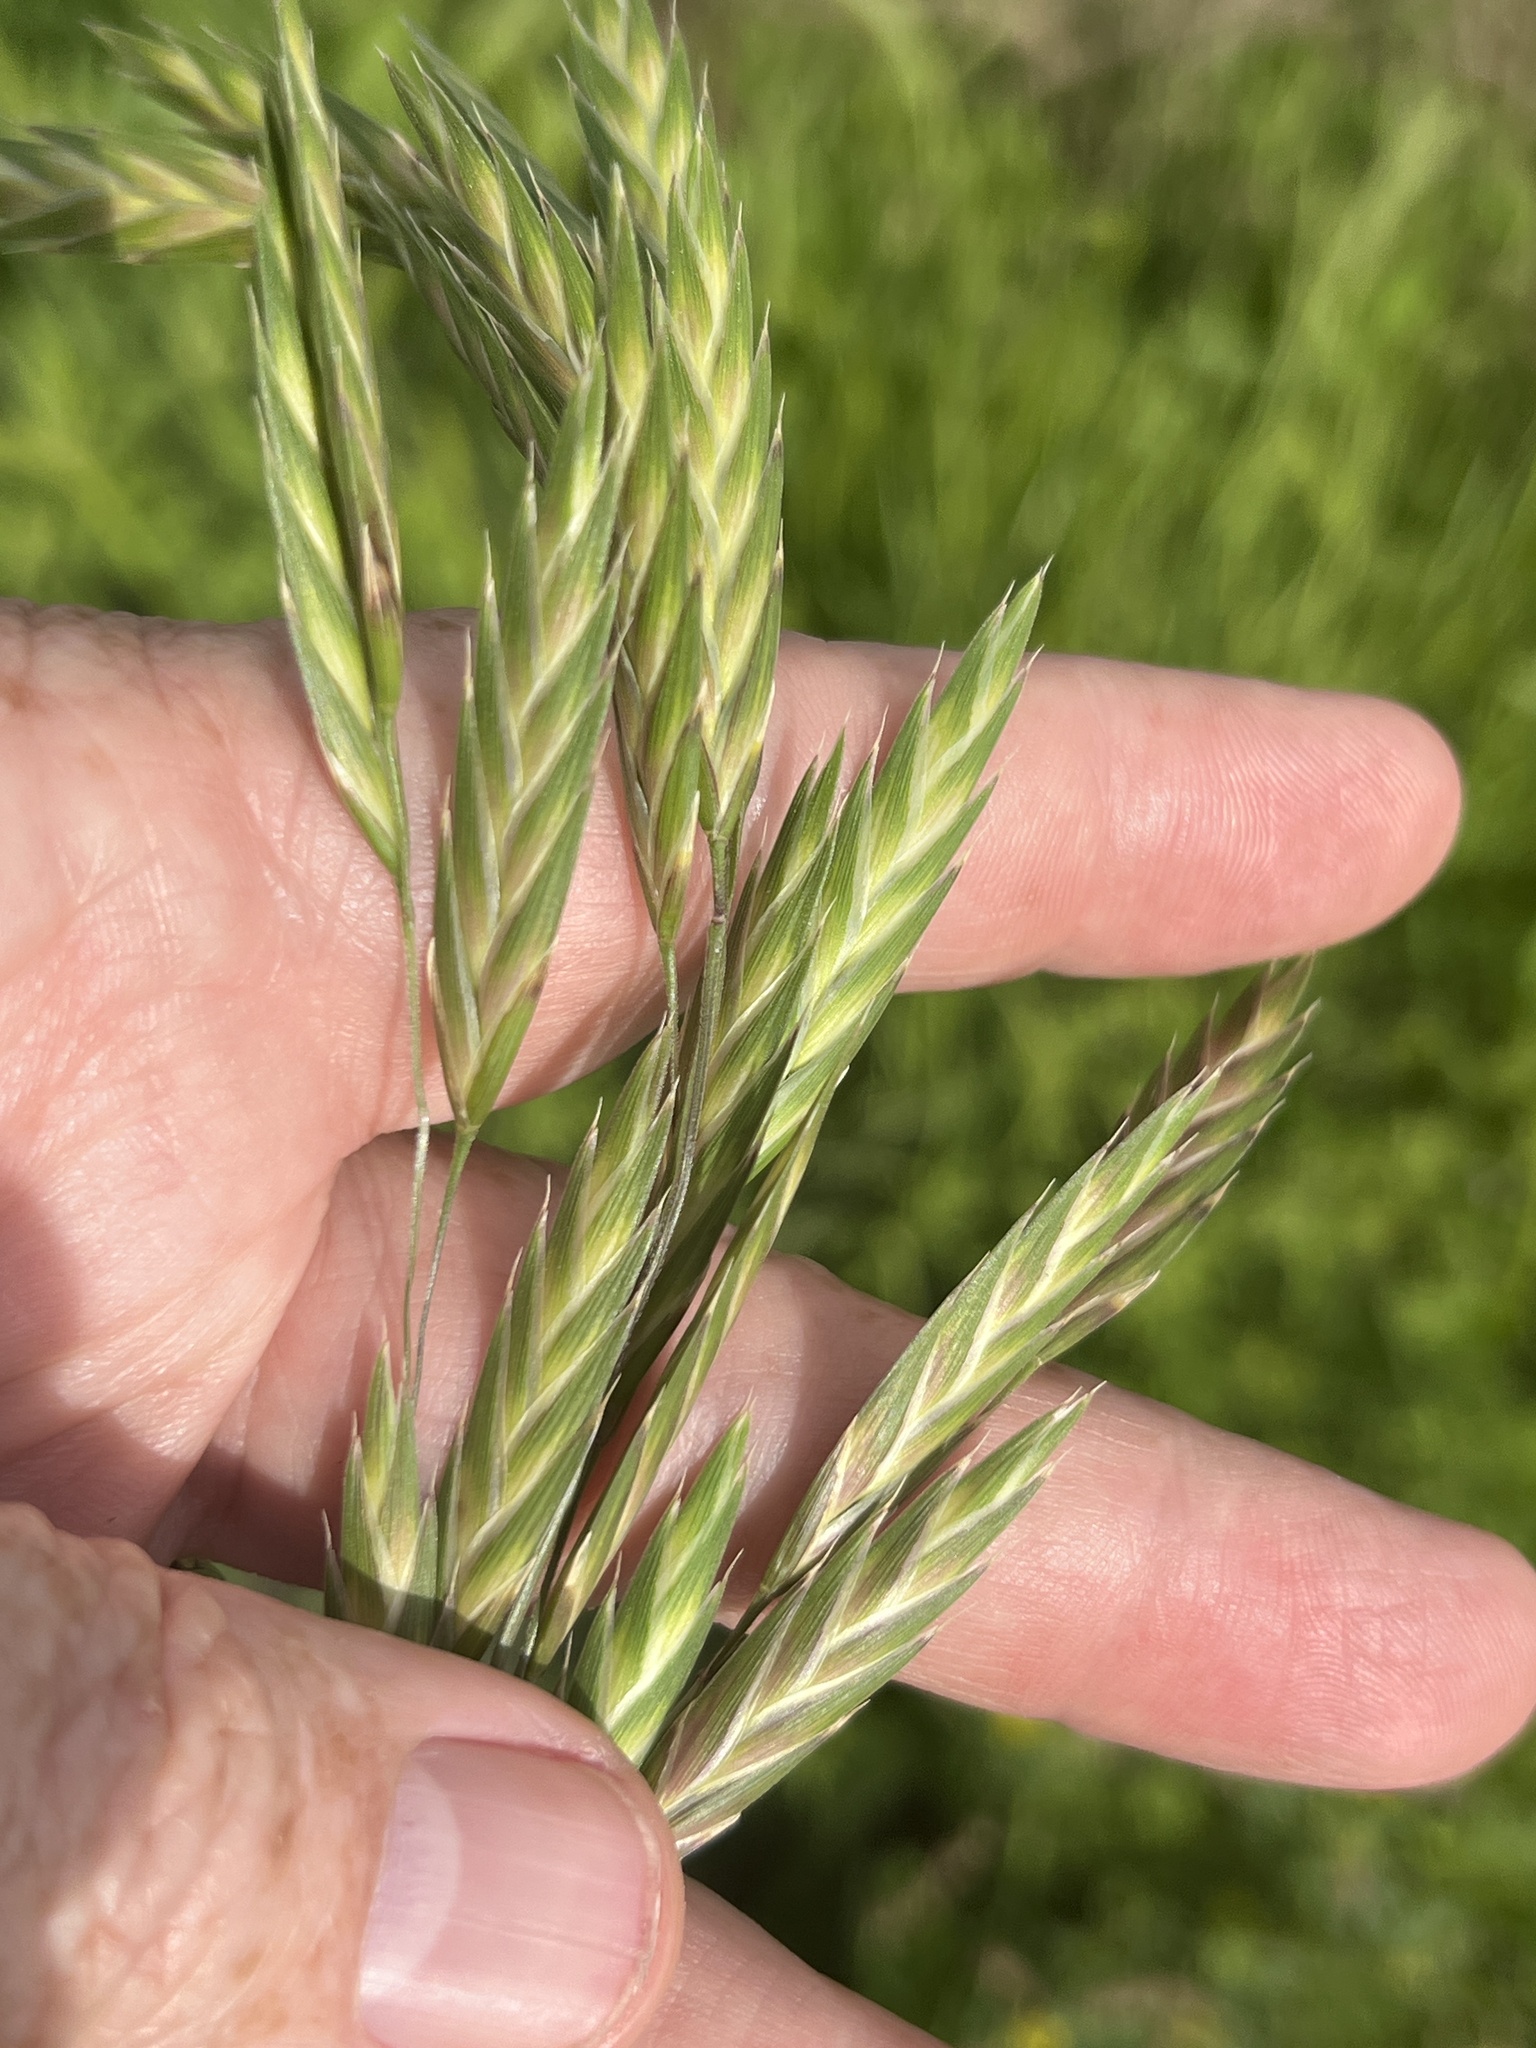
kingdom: Plantae
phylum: Tracheophyta
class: Liliopsida
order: Poales
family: Poaceae
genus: Bromus
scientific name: Bromus catharticus
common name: Rescuegrass
